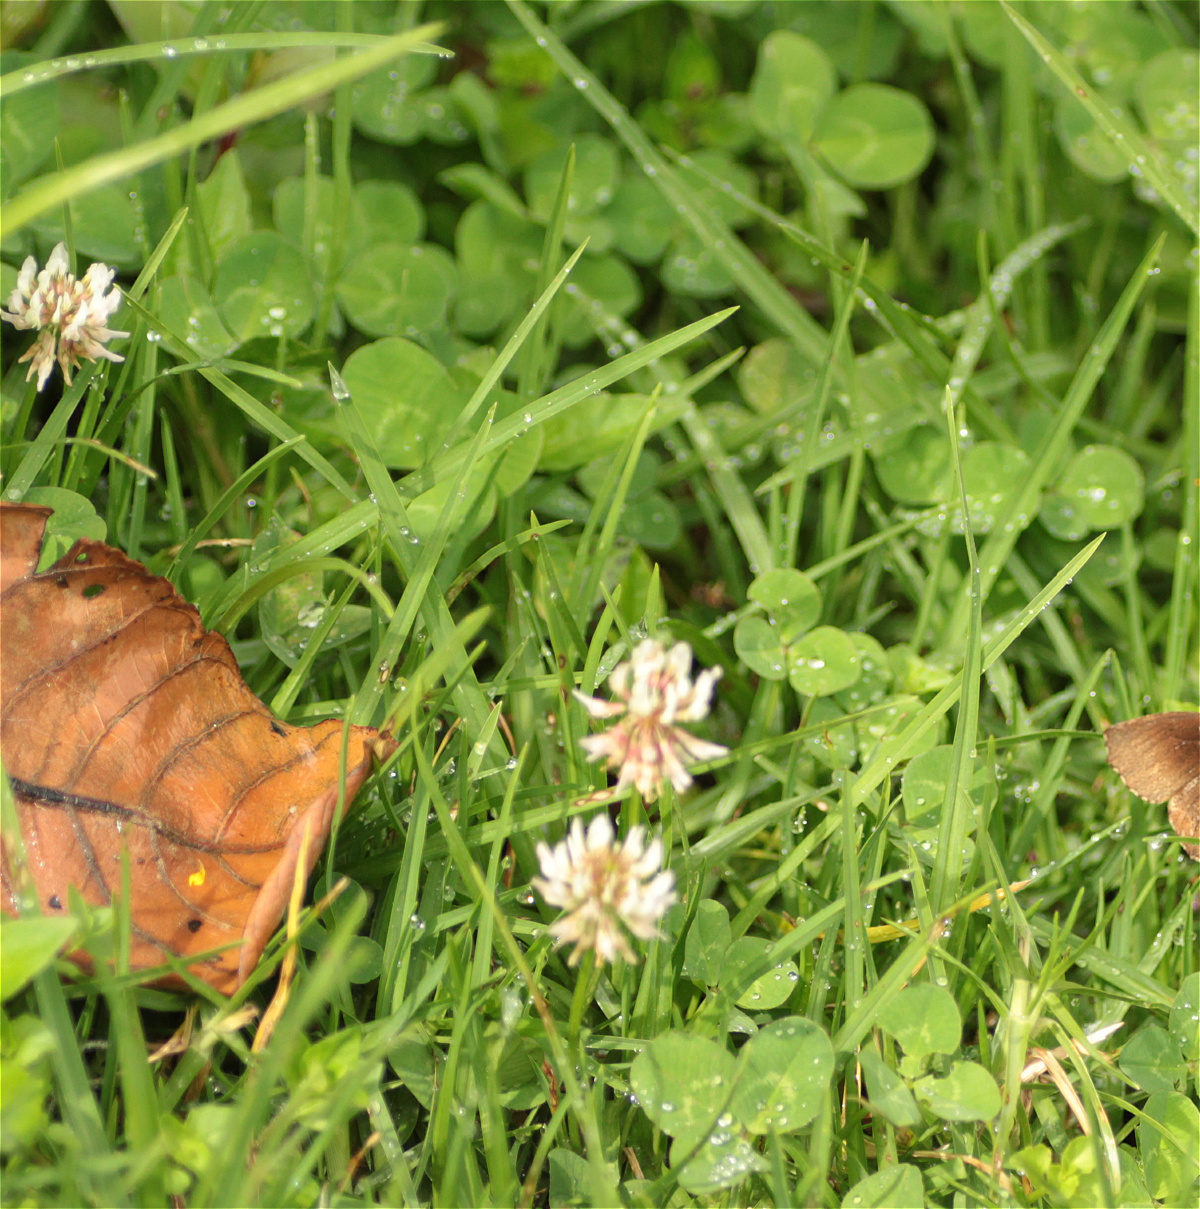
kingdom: Plantae
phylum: Tracheophyta
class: Magnoliopsida
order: Fabales
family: Fabaceae
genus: Trifolium
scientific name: Trifolium repens
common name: White clover
